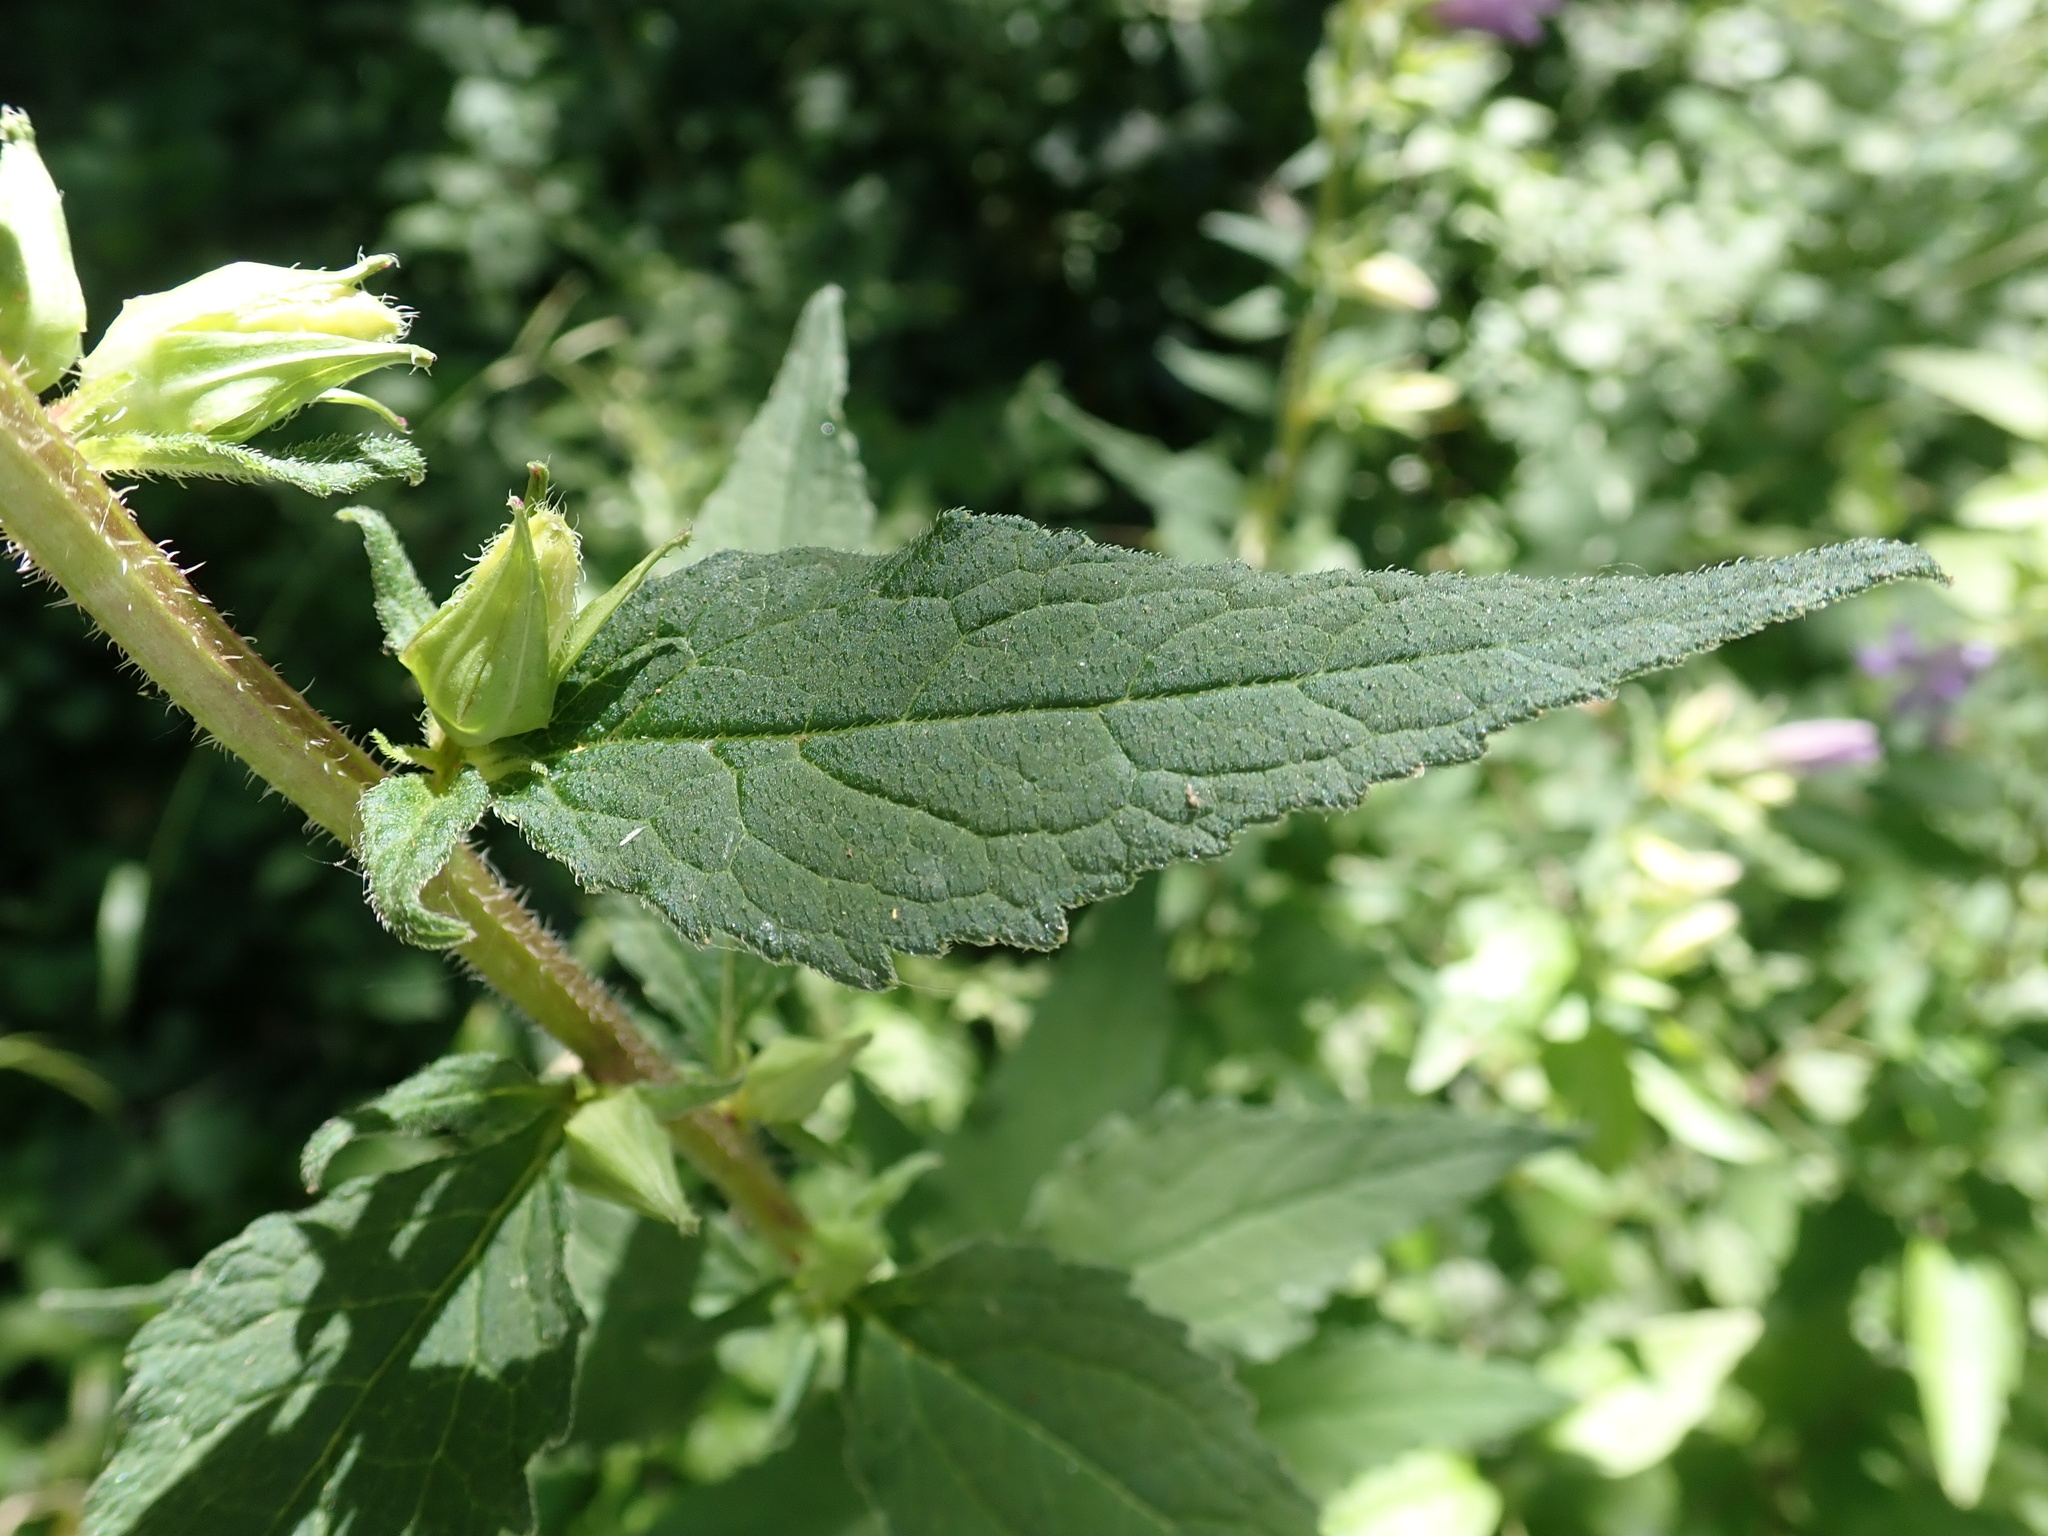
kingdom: Plantae
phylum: Tracheophyta
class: Magnoliopsida
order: Asterales
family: Campanulaceae
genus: Campanula
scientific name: Campanula trachelium
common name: Nettle-leaved bellflower
